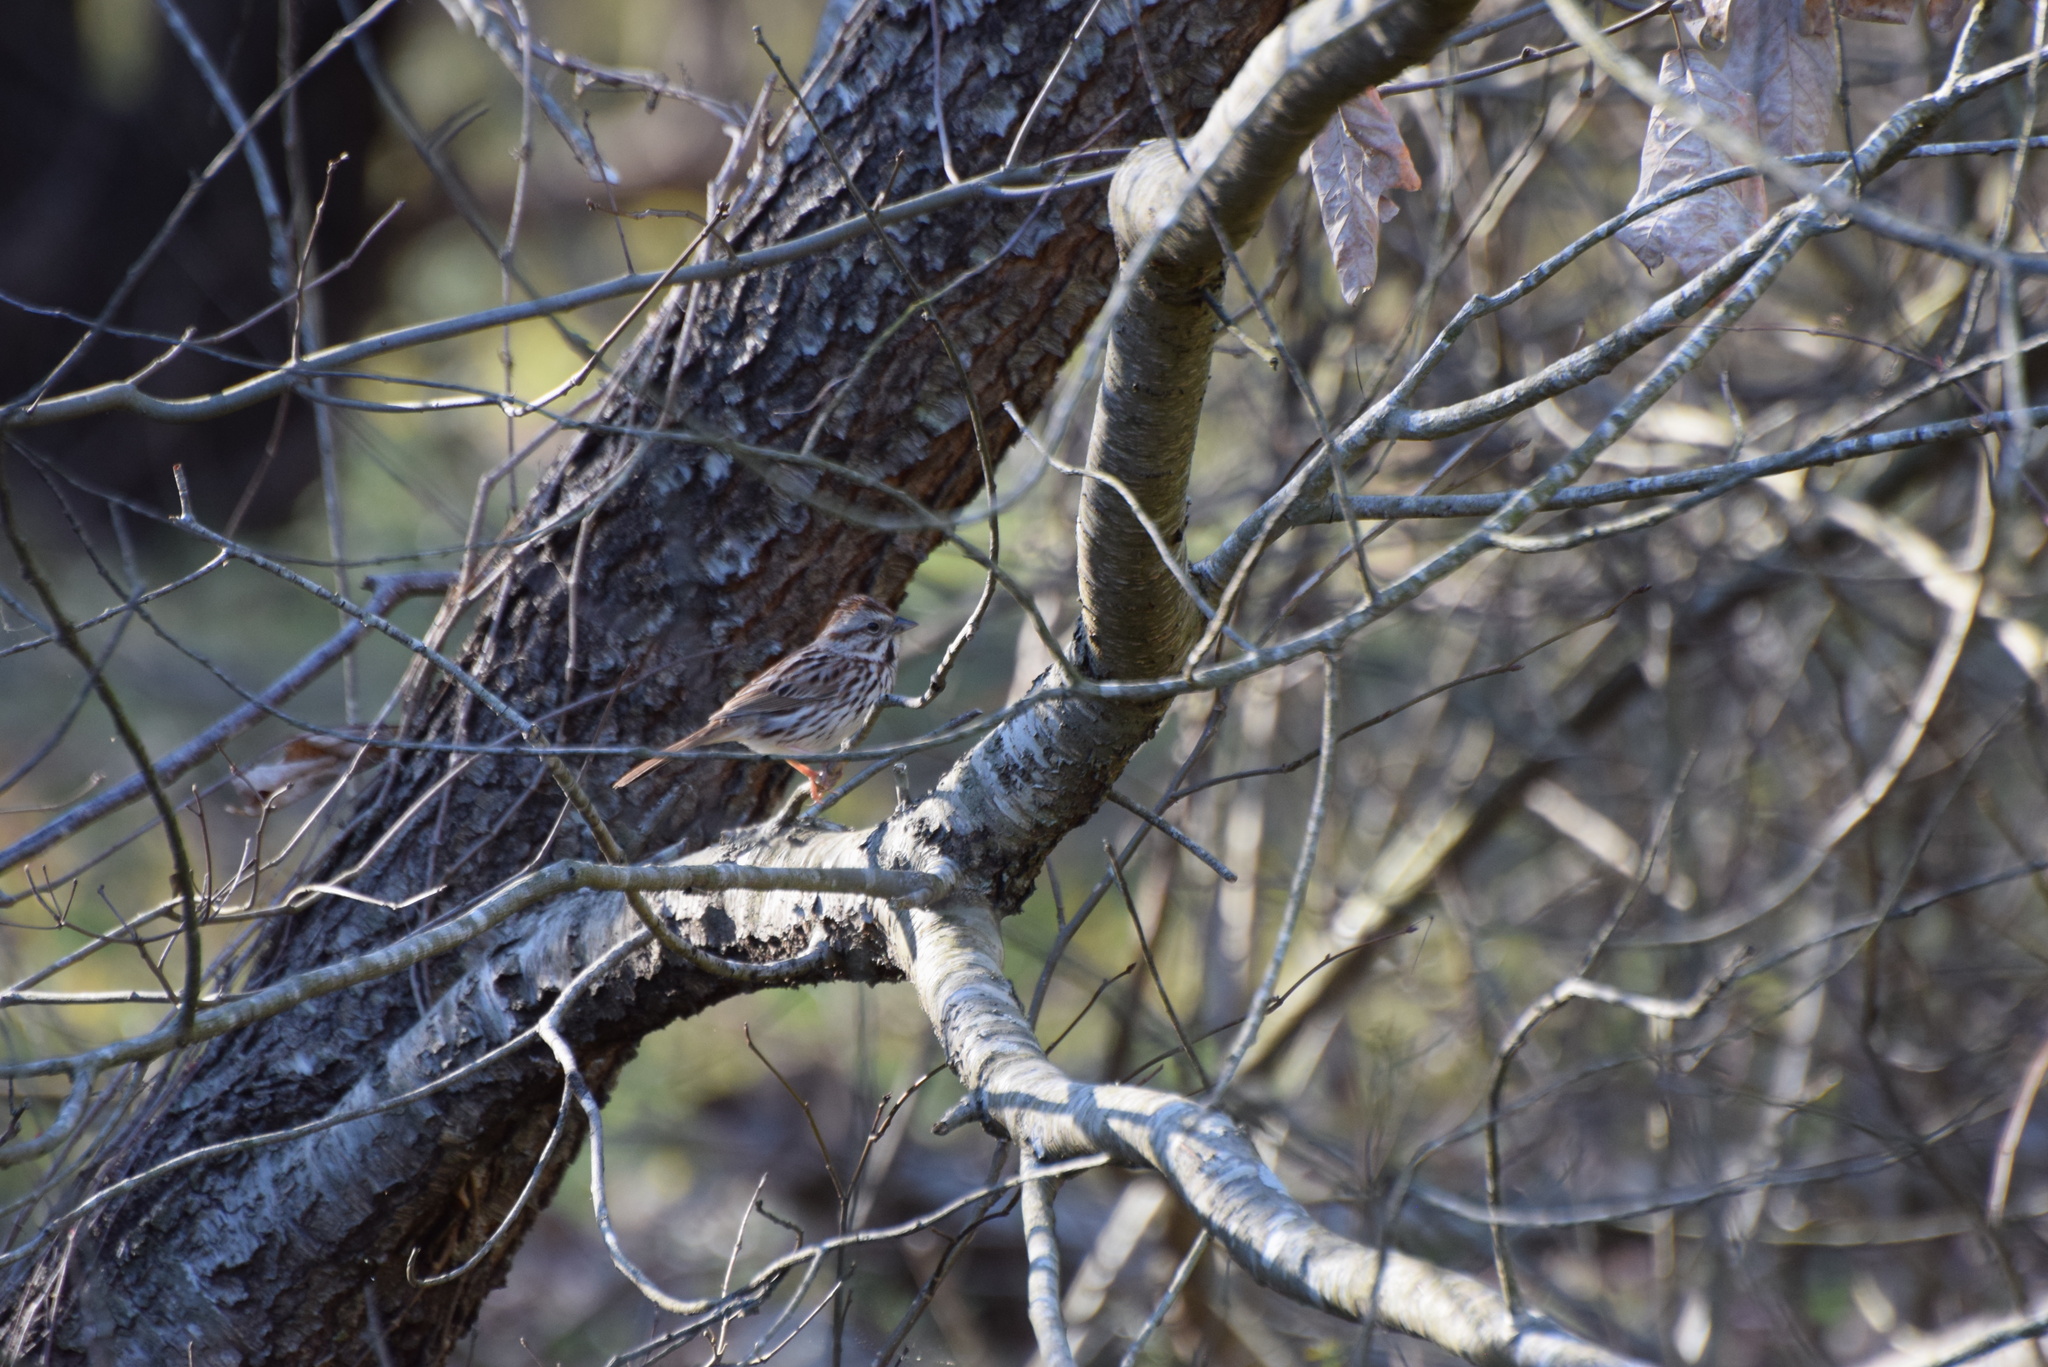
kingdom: Animalia
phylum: Chordata
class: Aves
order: Passeriformes
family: Passerellidae
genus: Melospiza
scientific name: Melospiza melodia
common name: Song sparrow
